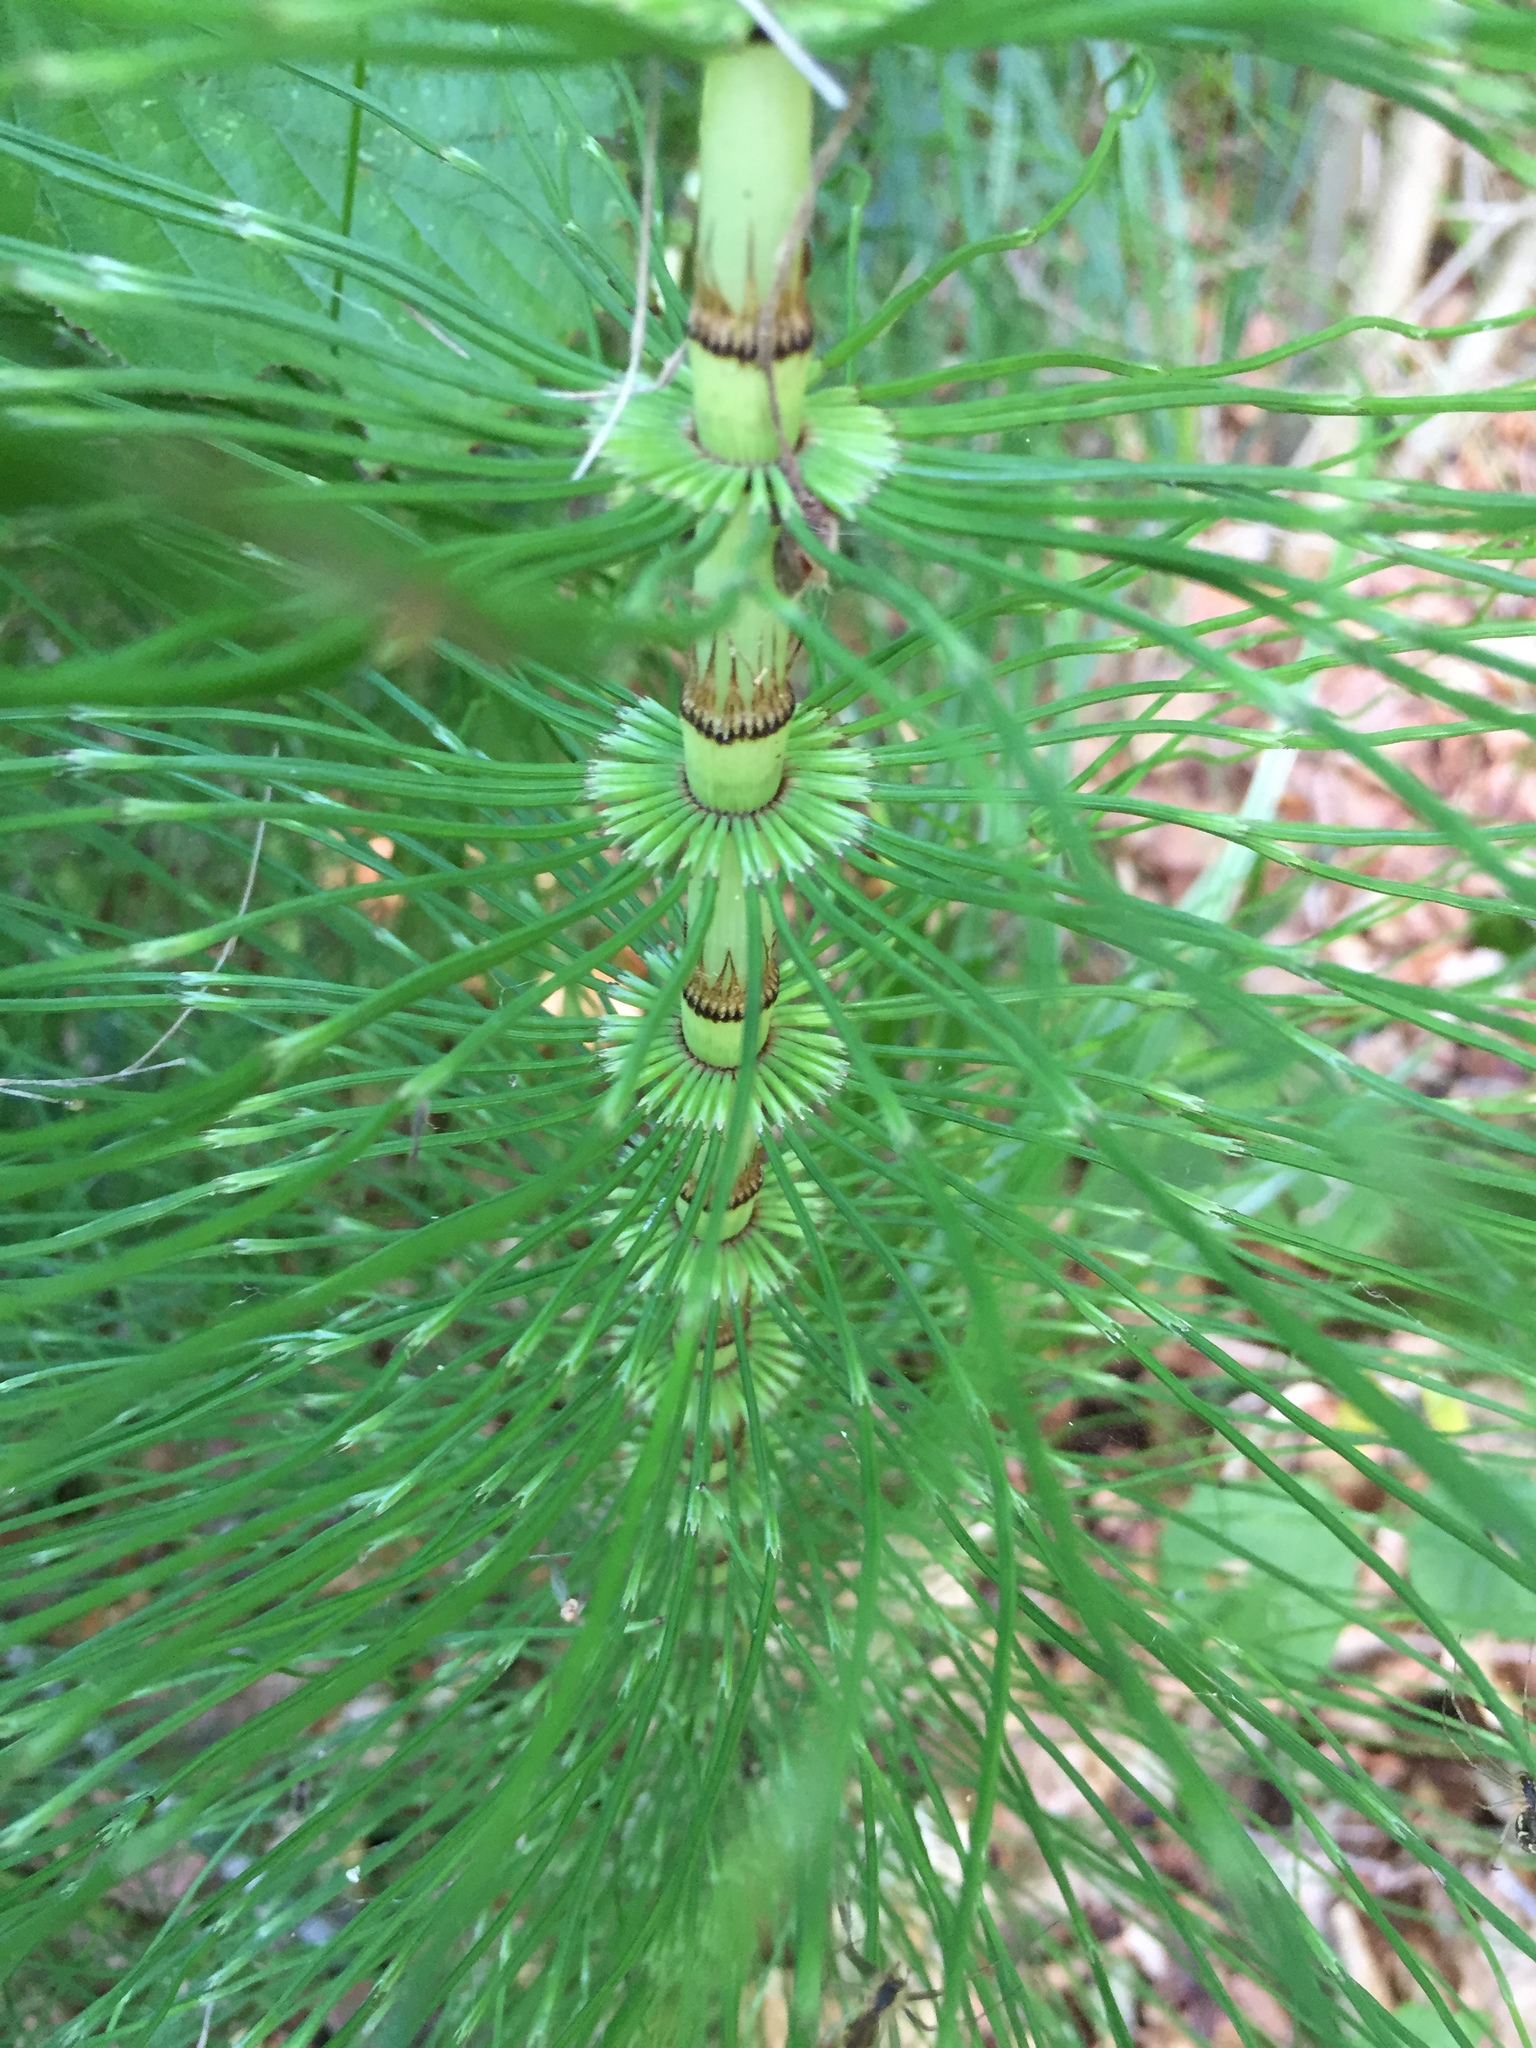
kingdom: Plantae
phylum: Tracheophyta
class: Polypodiopsida
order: Equisetales
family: Equisetaceae
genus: Equisetum
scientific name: Equisetum telmateia
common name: Great horsetail
